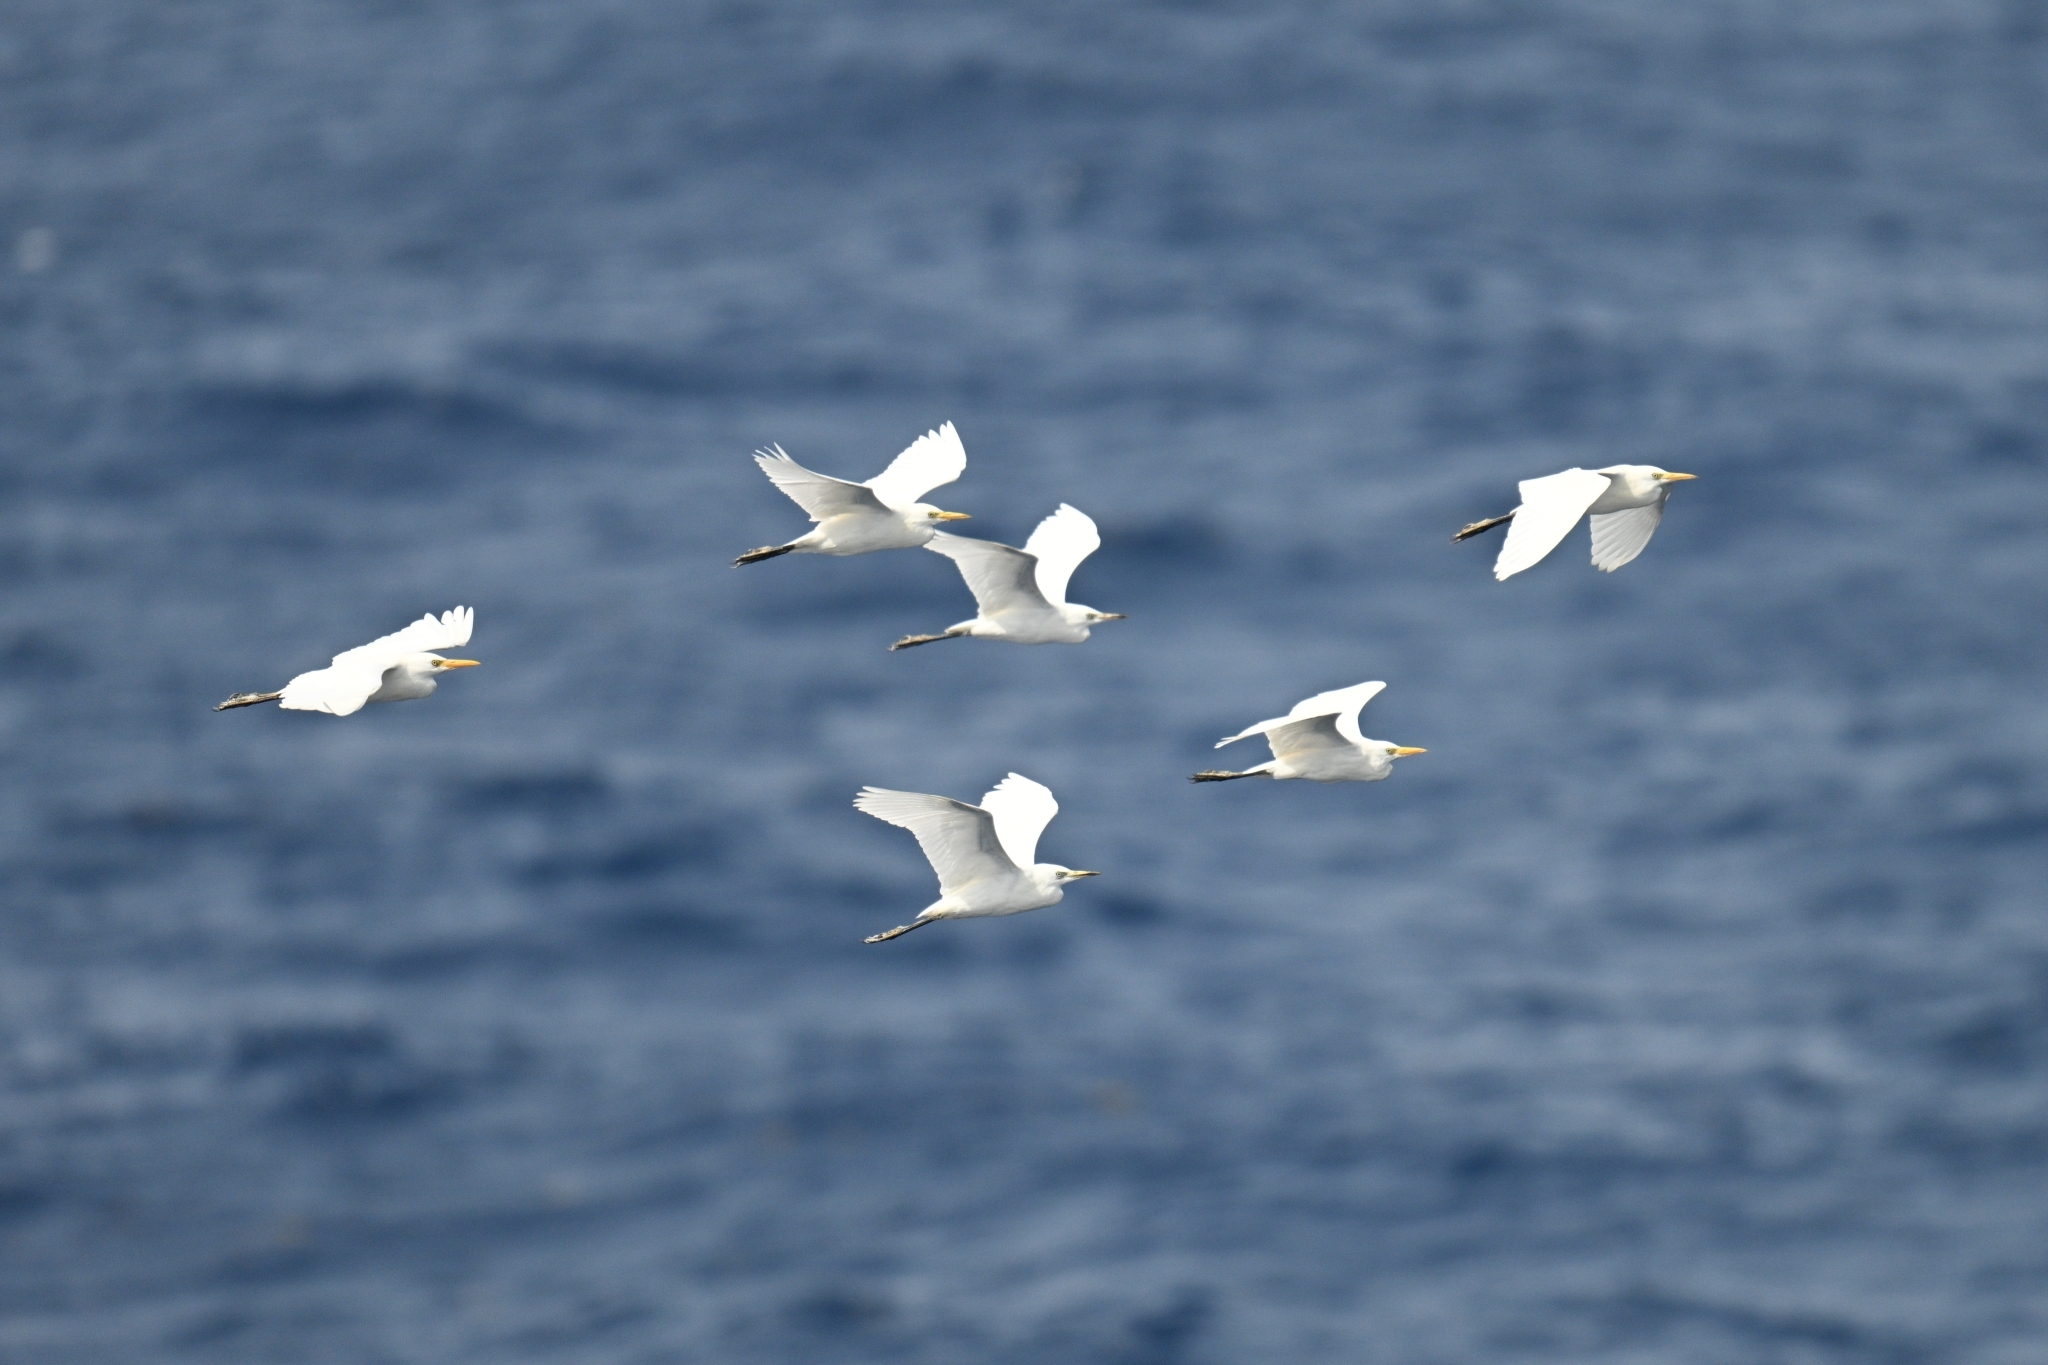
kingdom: Animalia
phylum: Chordata
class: Aves
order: Pelecaniformes
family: Ardeidae
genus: Bubulcus
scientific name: Bubulcus ibis
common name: Cattle egret
